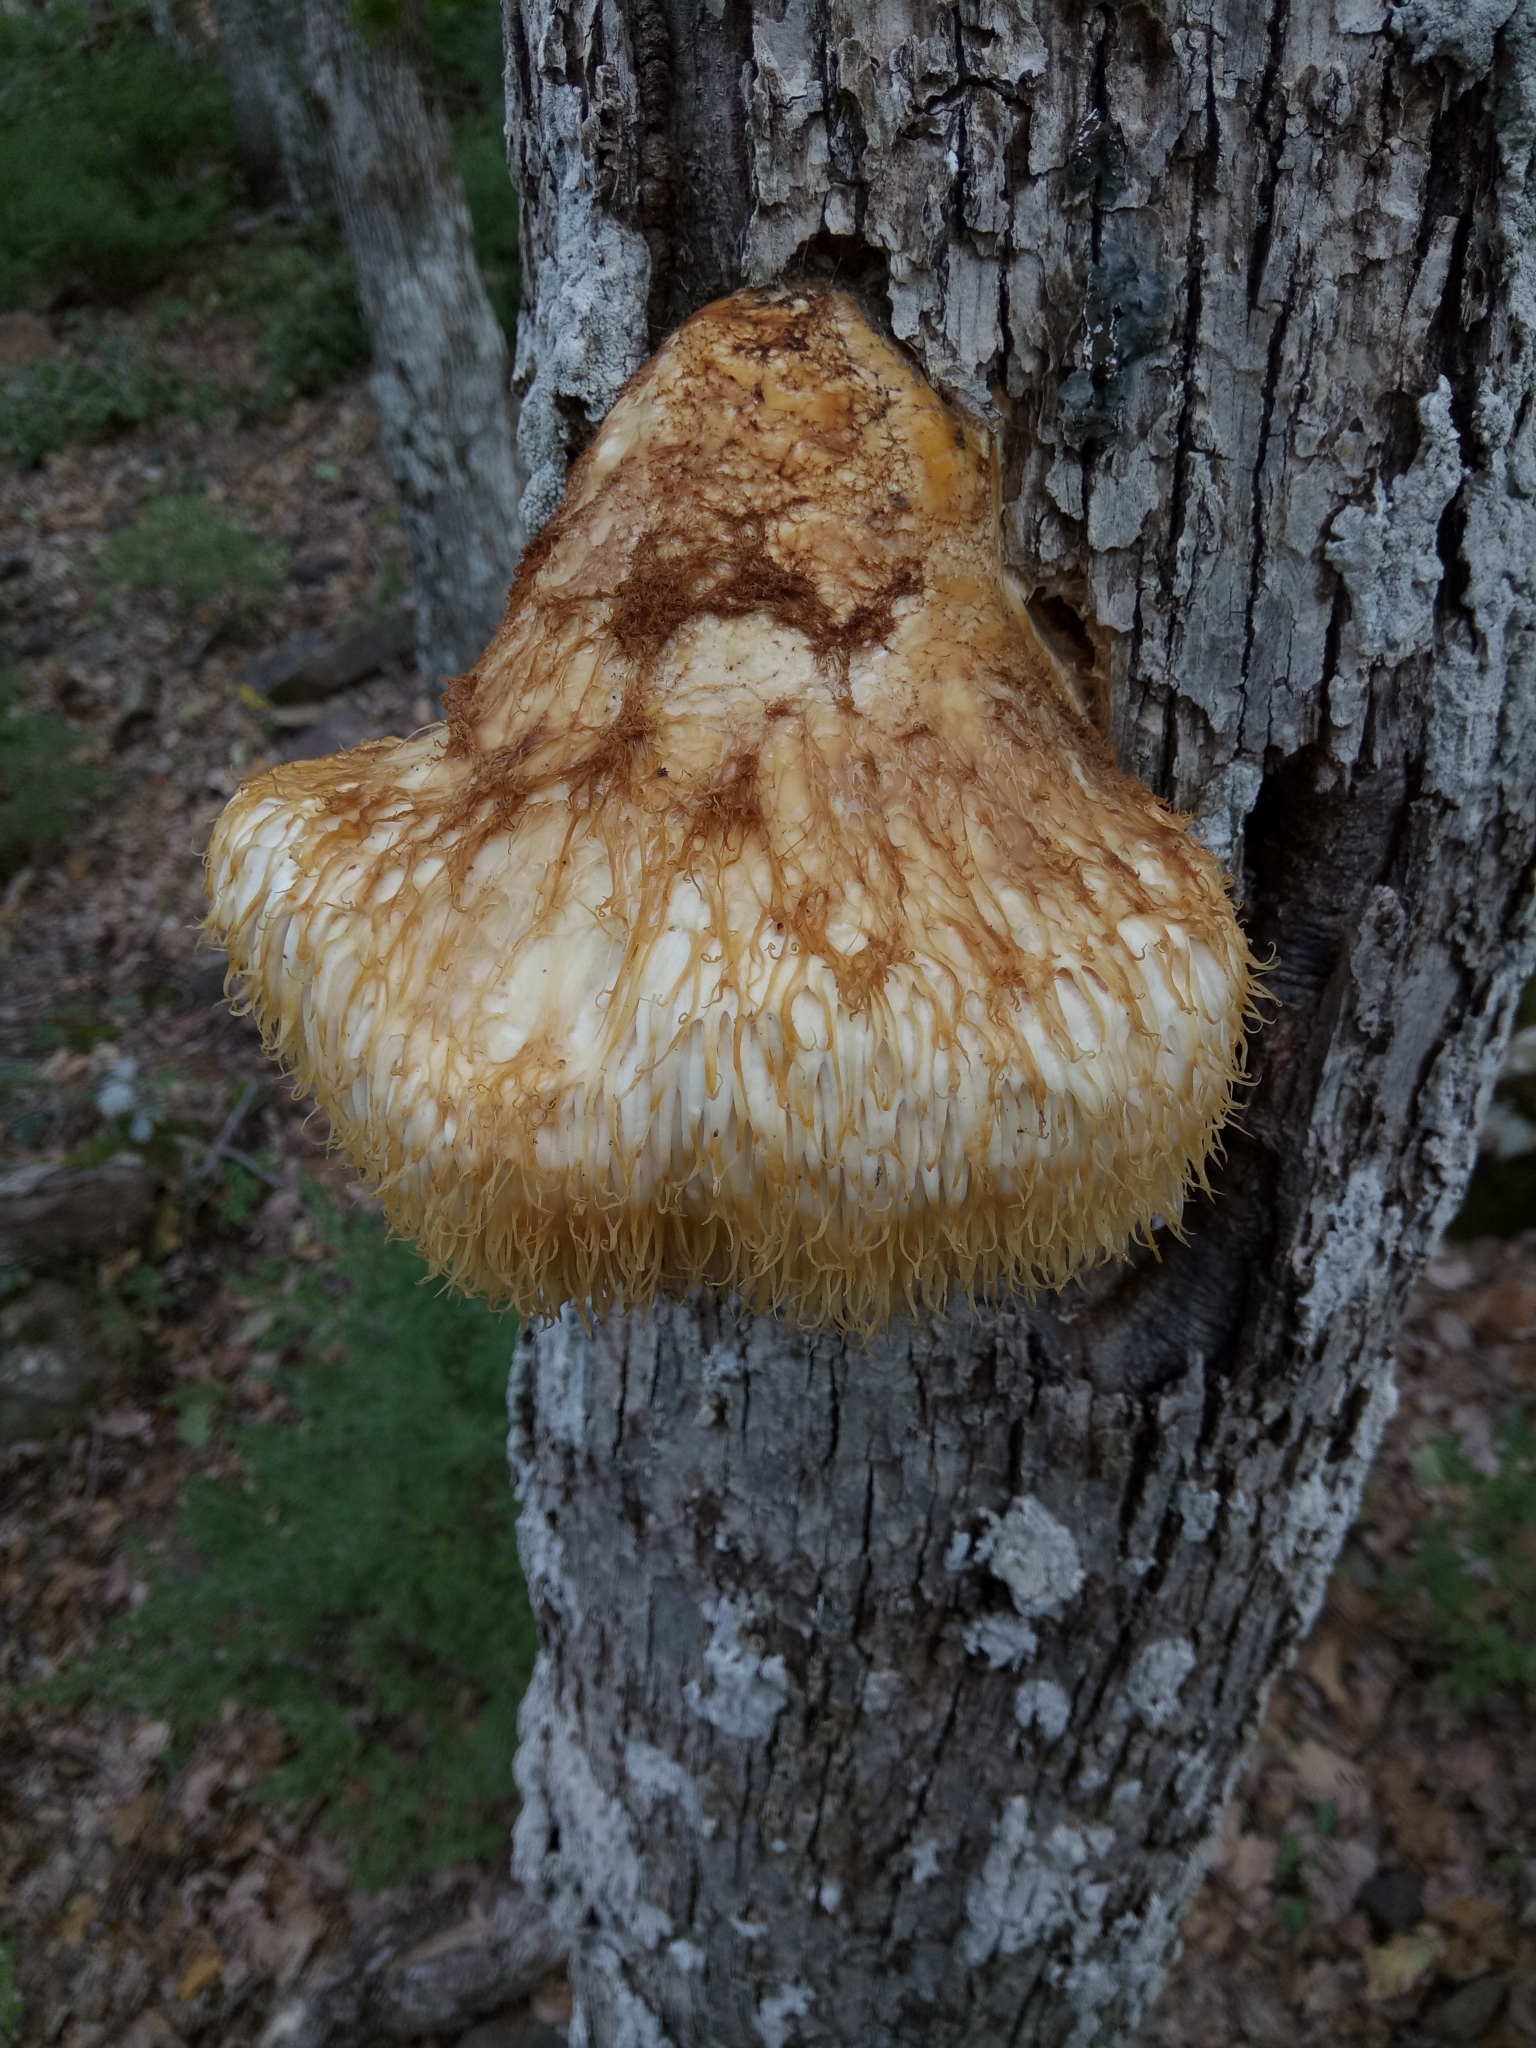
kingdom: Fungi
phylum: Basidiomycota
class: Agaricomycetes
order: Russulales
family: Hericiaceae
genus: Hericium
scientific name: Hericium erinaceus
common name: Bearded tooth
